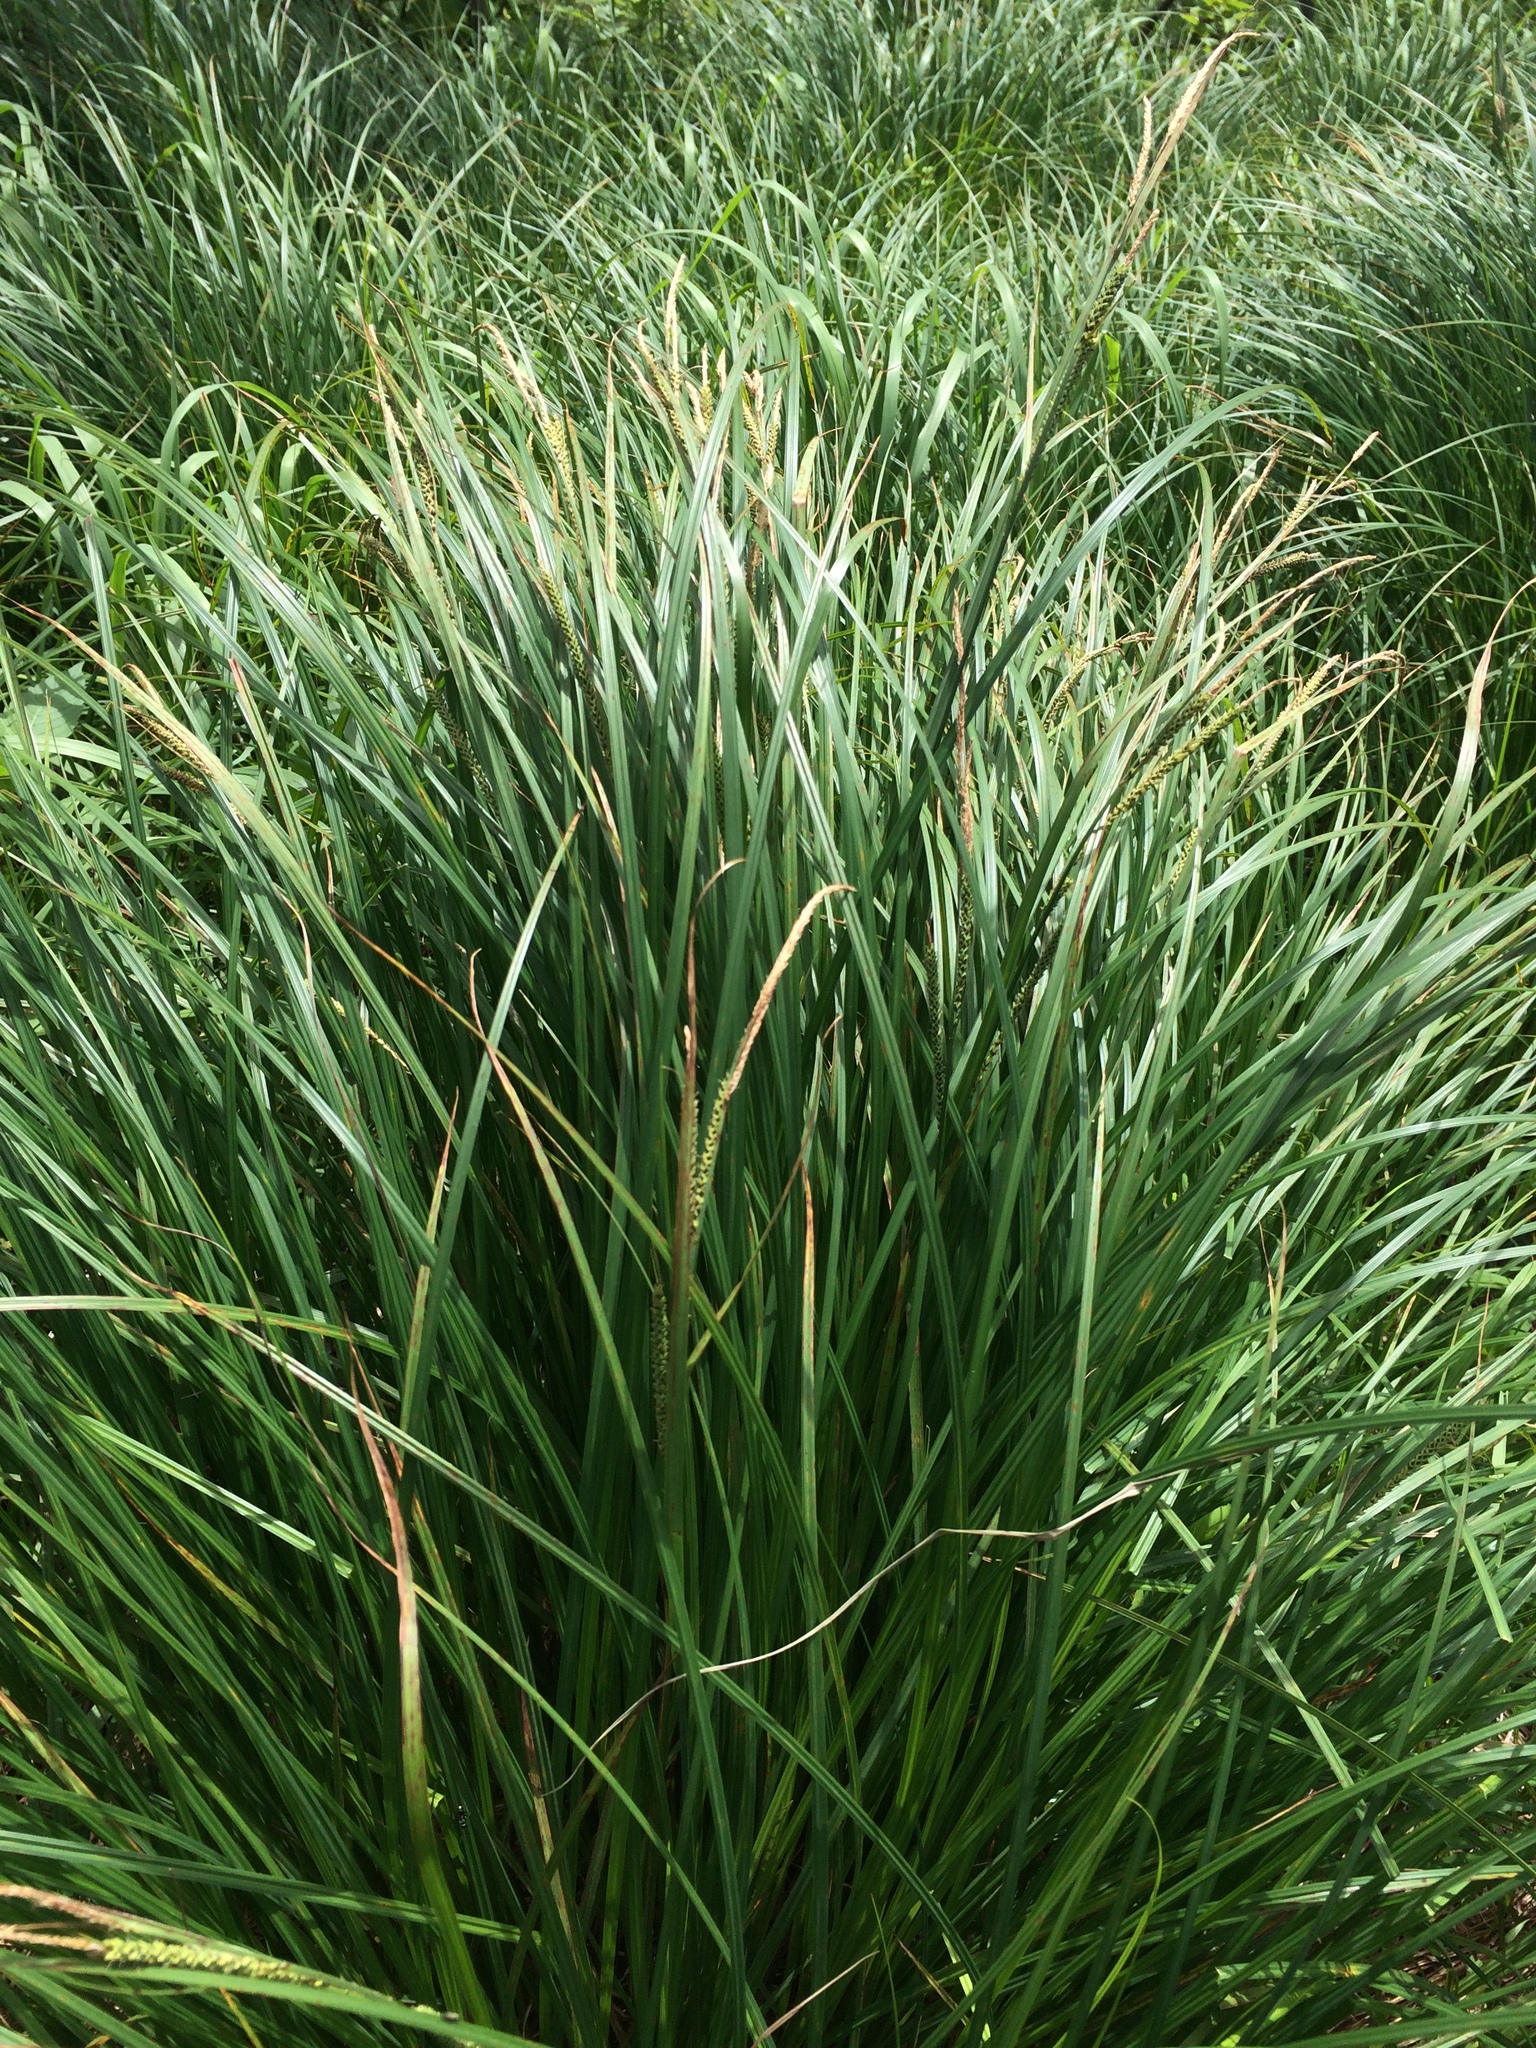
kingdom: Plantae
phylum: Tracheophyta
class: Liliopsida
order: Poales
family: Cyperaceae
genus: Carex
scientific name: Carex stricta
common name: Hummock sedge
